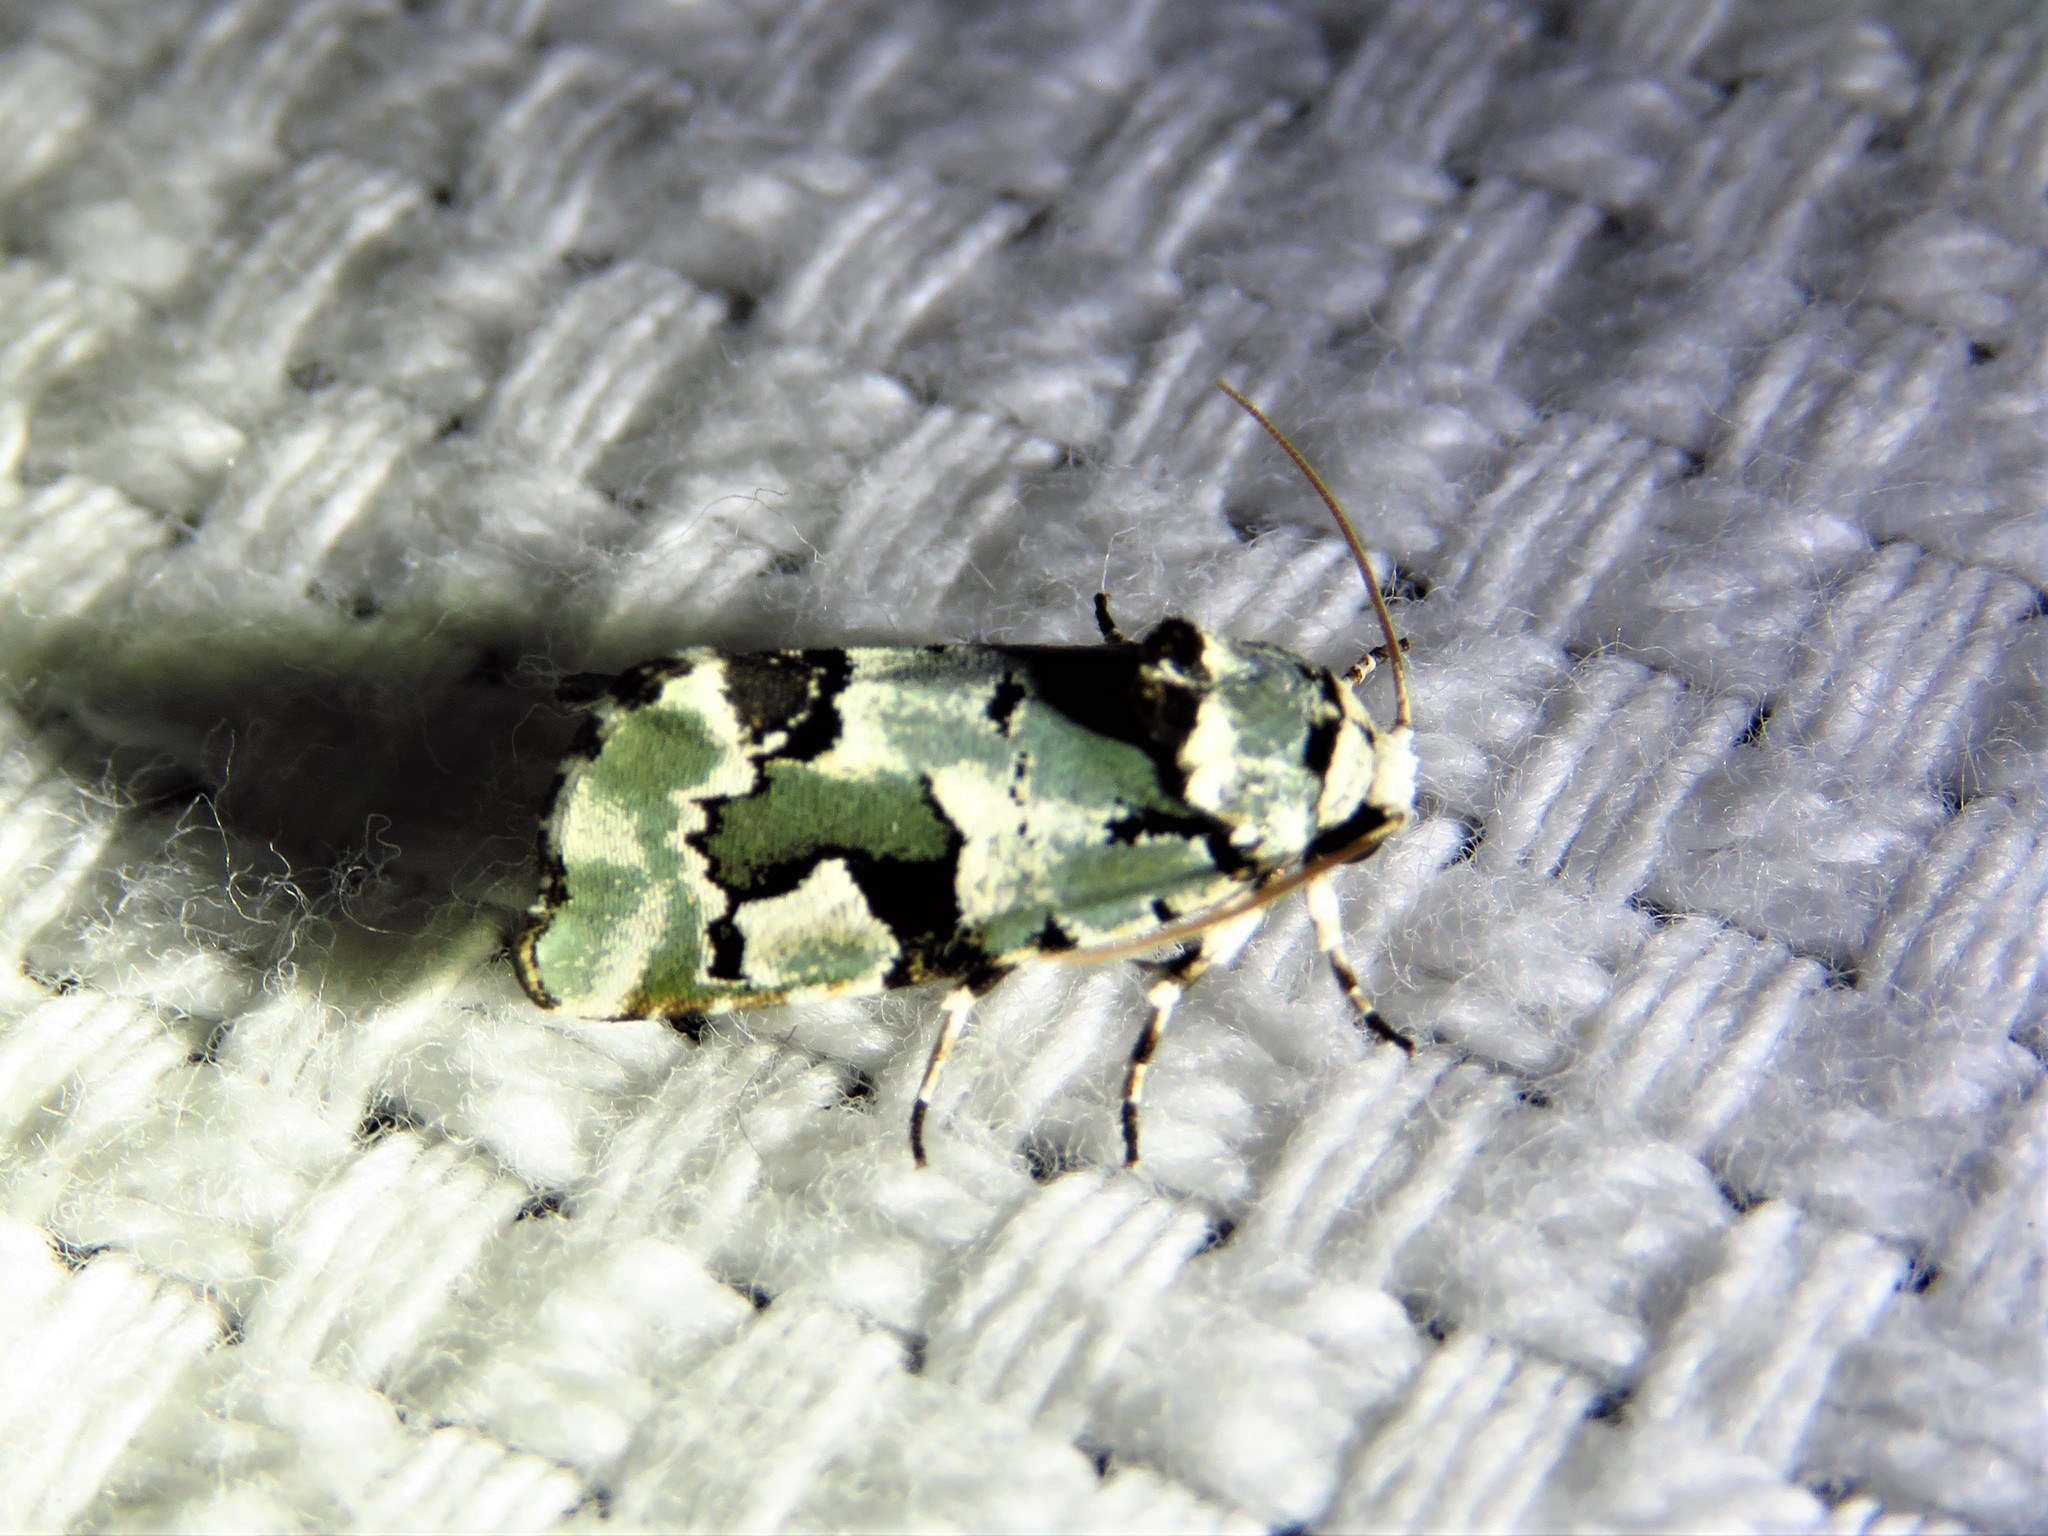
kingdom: Animalia
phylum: Arthropoda
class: Insecta
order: Lepidoptera
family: Noctuidae
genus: Emarginea
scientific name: Emarginea percara
